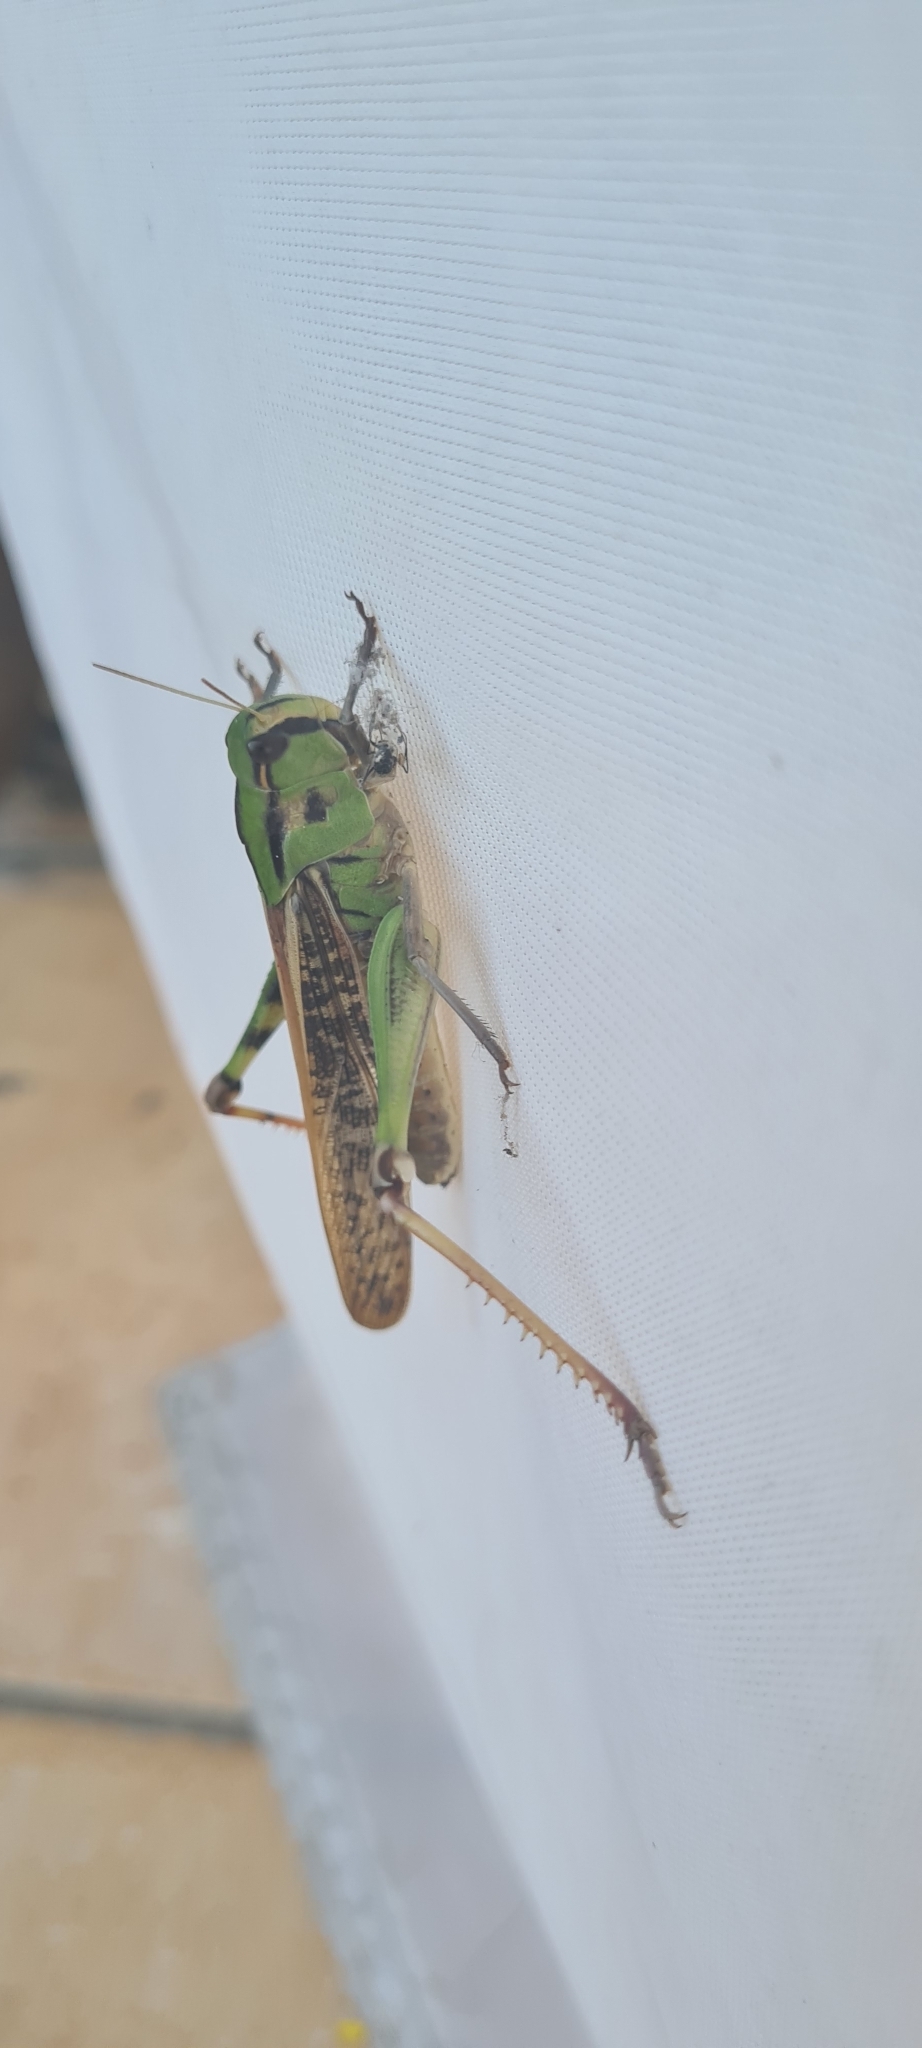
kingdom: Animalia
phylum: Arthropoda
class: Insecta
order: Orthoptera
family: Acrididae
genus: Locusta
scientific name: Locusta migratoria
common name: Migratory locust
